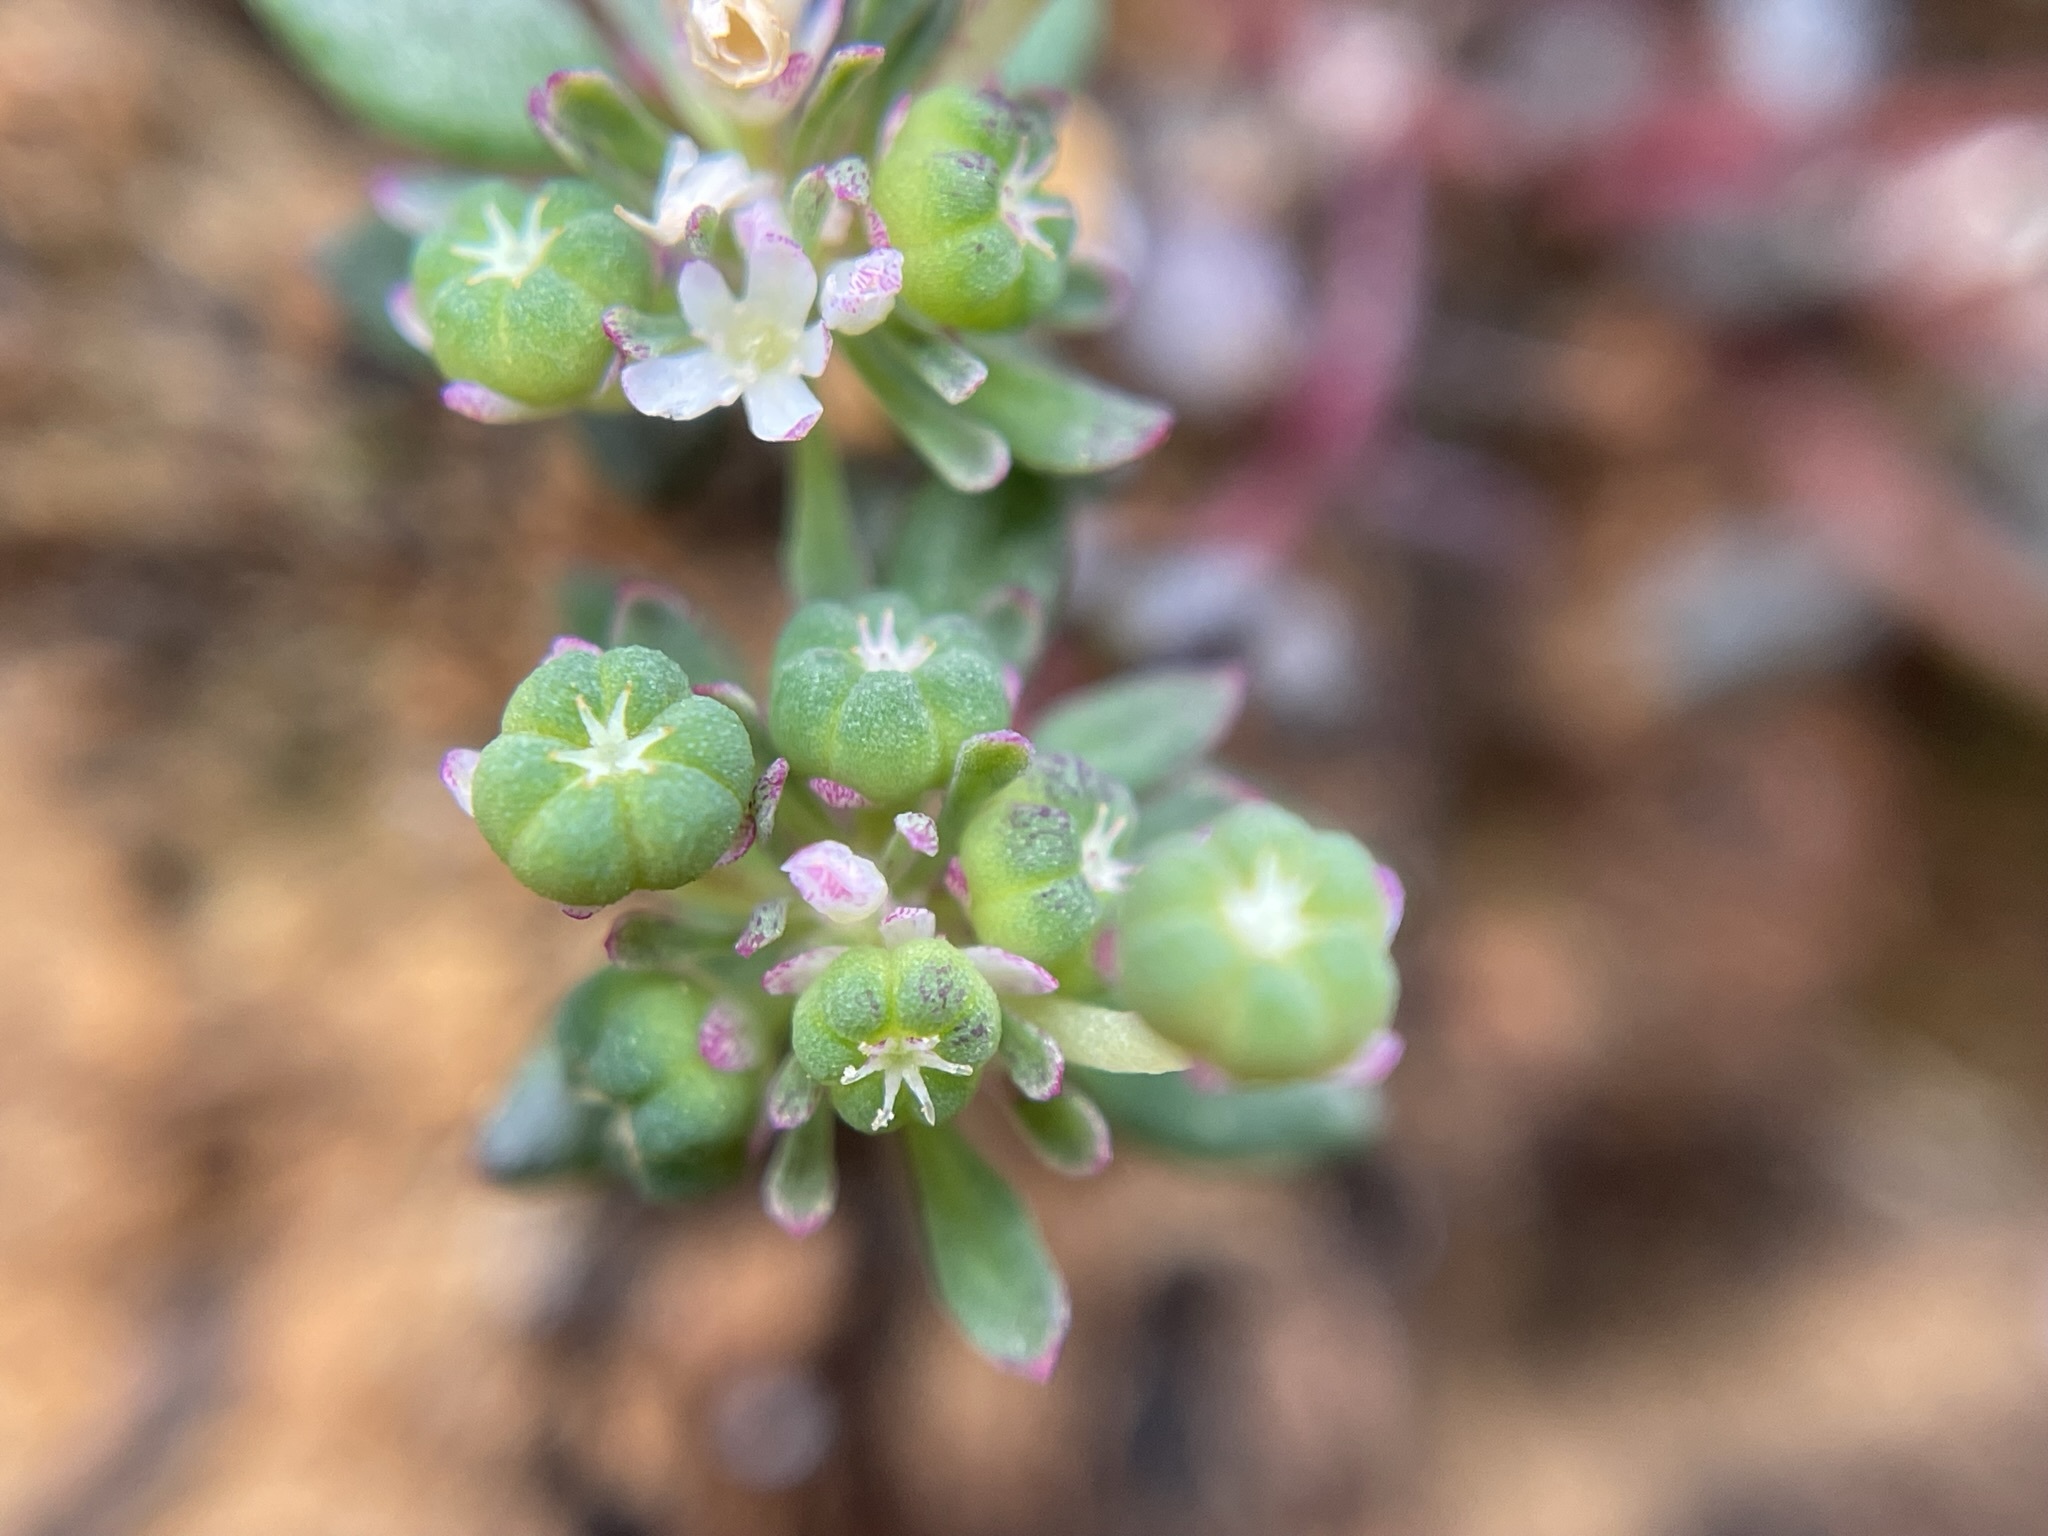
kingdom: Plantae
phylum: Tracheophyta
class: Magnoliopsida
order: Malpighiales
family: Phyllanthaceae
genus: Poranthera
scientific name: Poranthera microphylla
